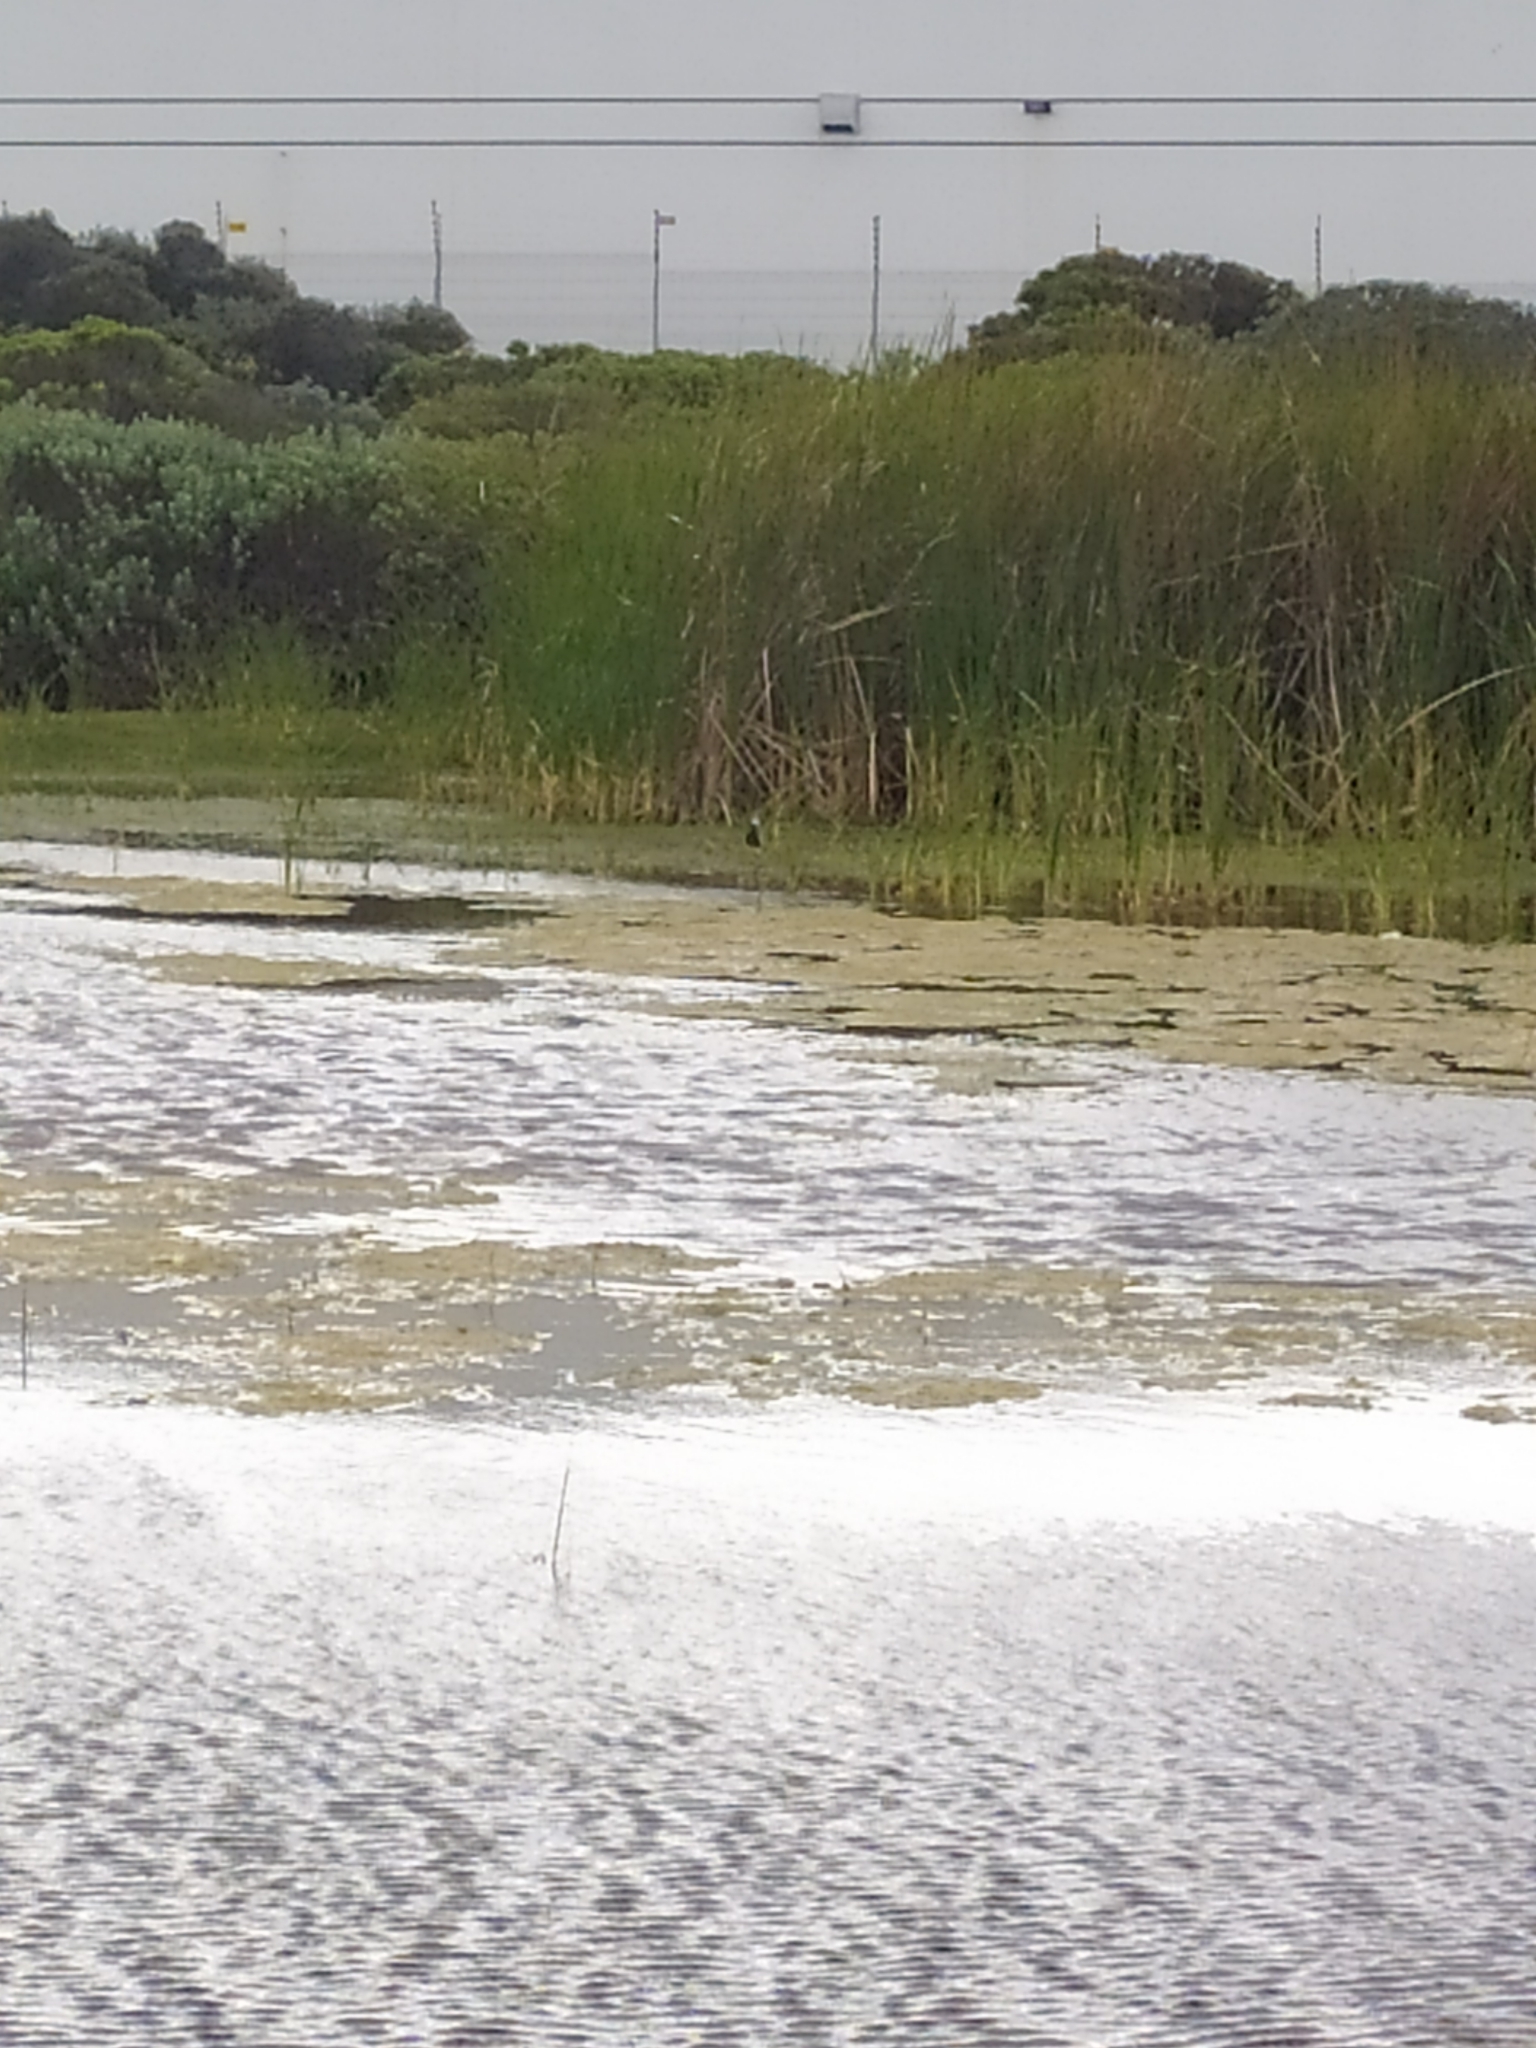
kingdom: Animalia
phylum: Chordata
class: Aves
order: Charadriiformes
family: Charadriidae
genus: Vanellus
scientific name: Vanellus armatus
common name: Blacksmith lapwing
